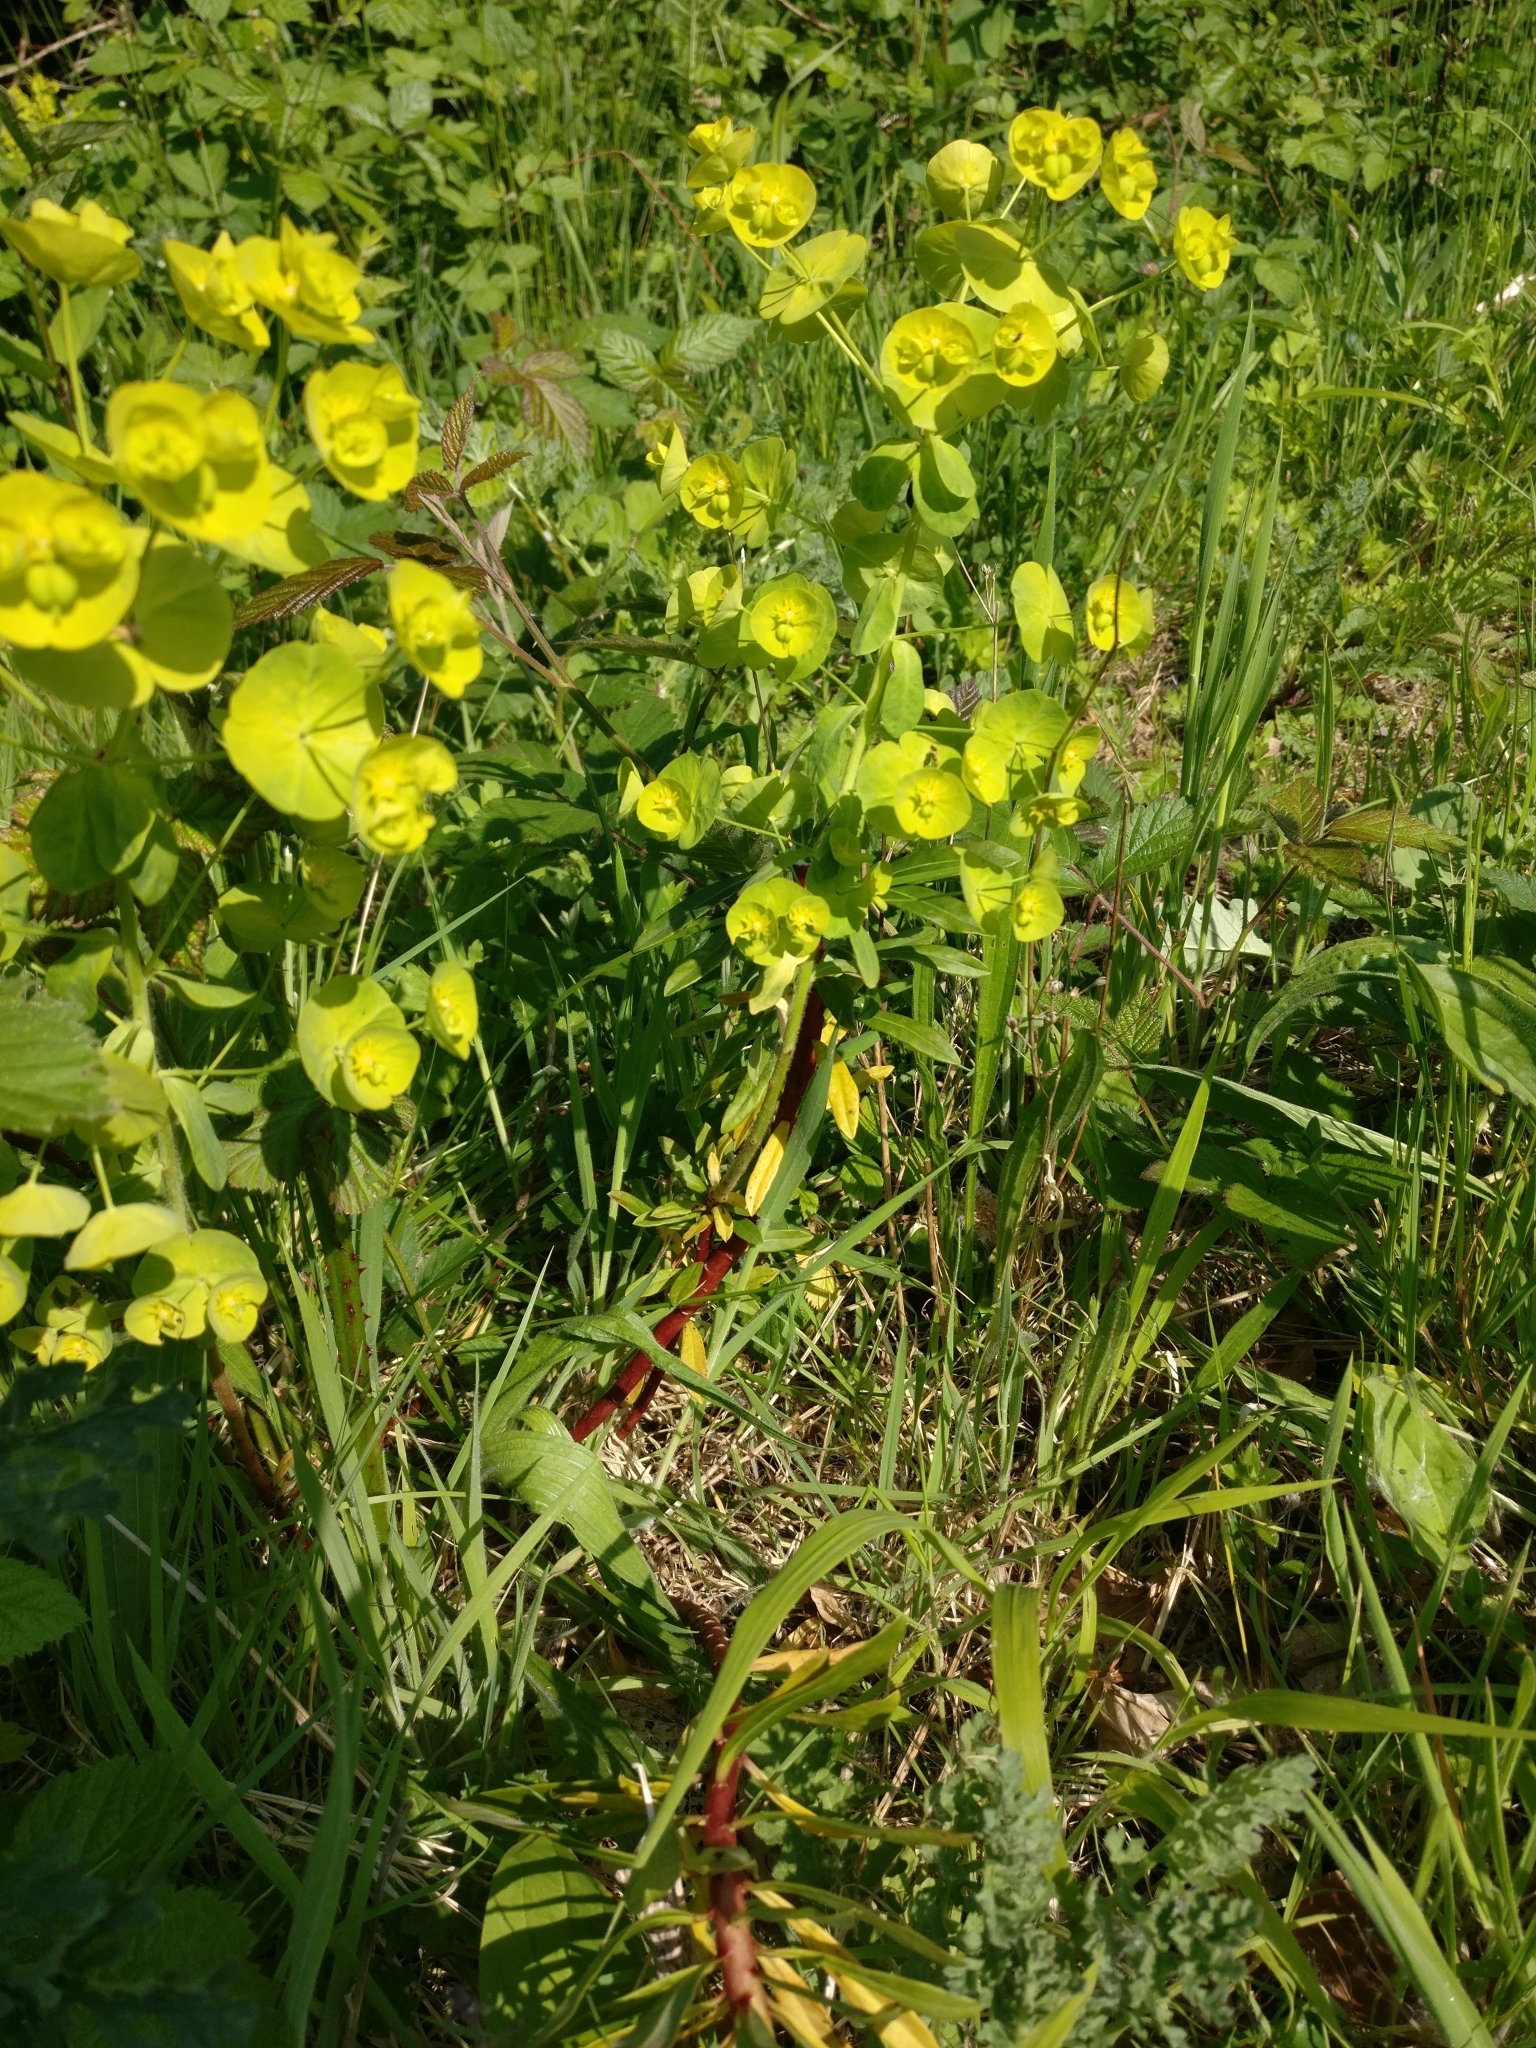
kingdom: Plantae
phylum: Tracheophyta
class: Magnoliopsida
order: Malpighiales
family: Euphorbiaceae
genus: Euphorbia
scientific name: Euphorbia amygdaloides
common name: Wood spurge
